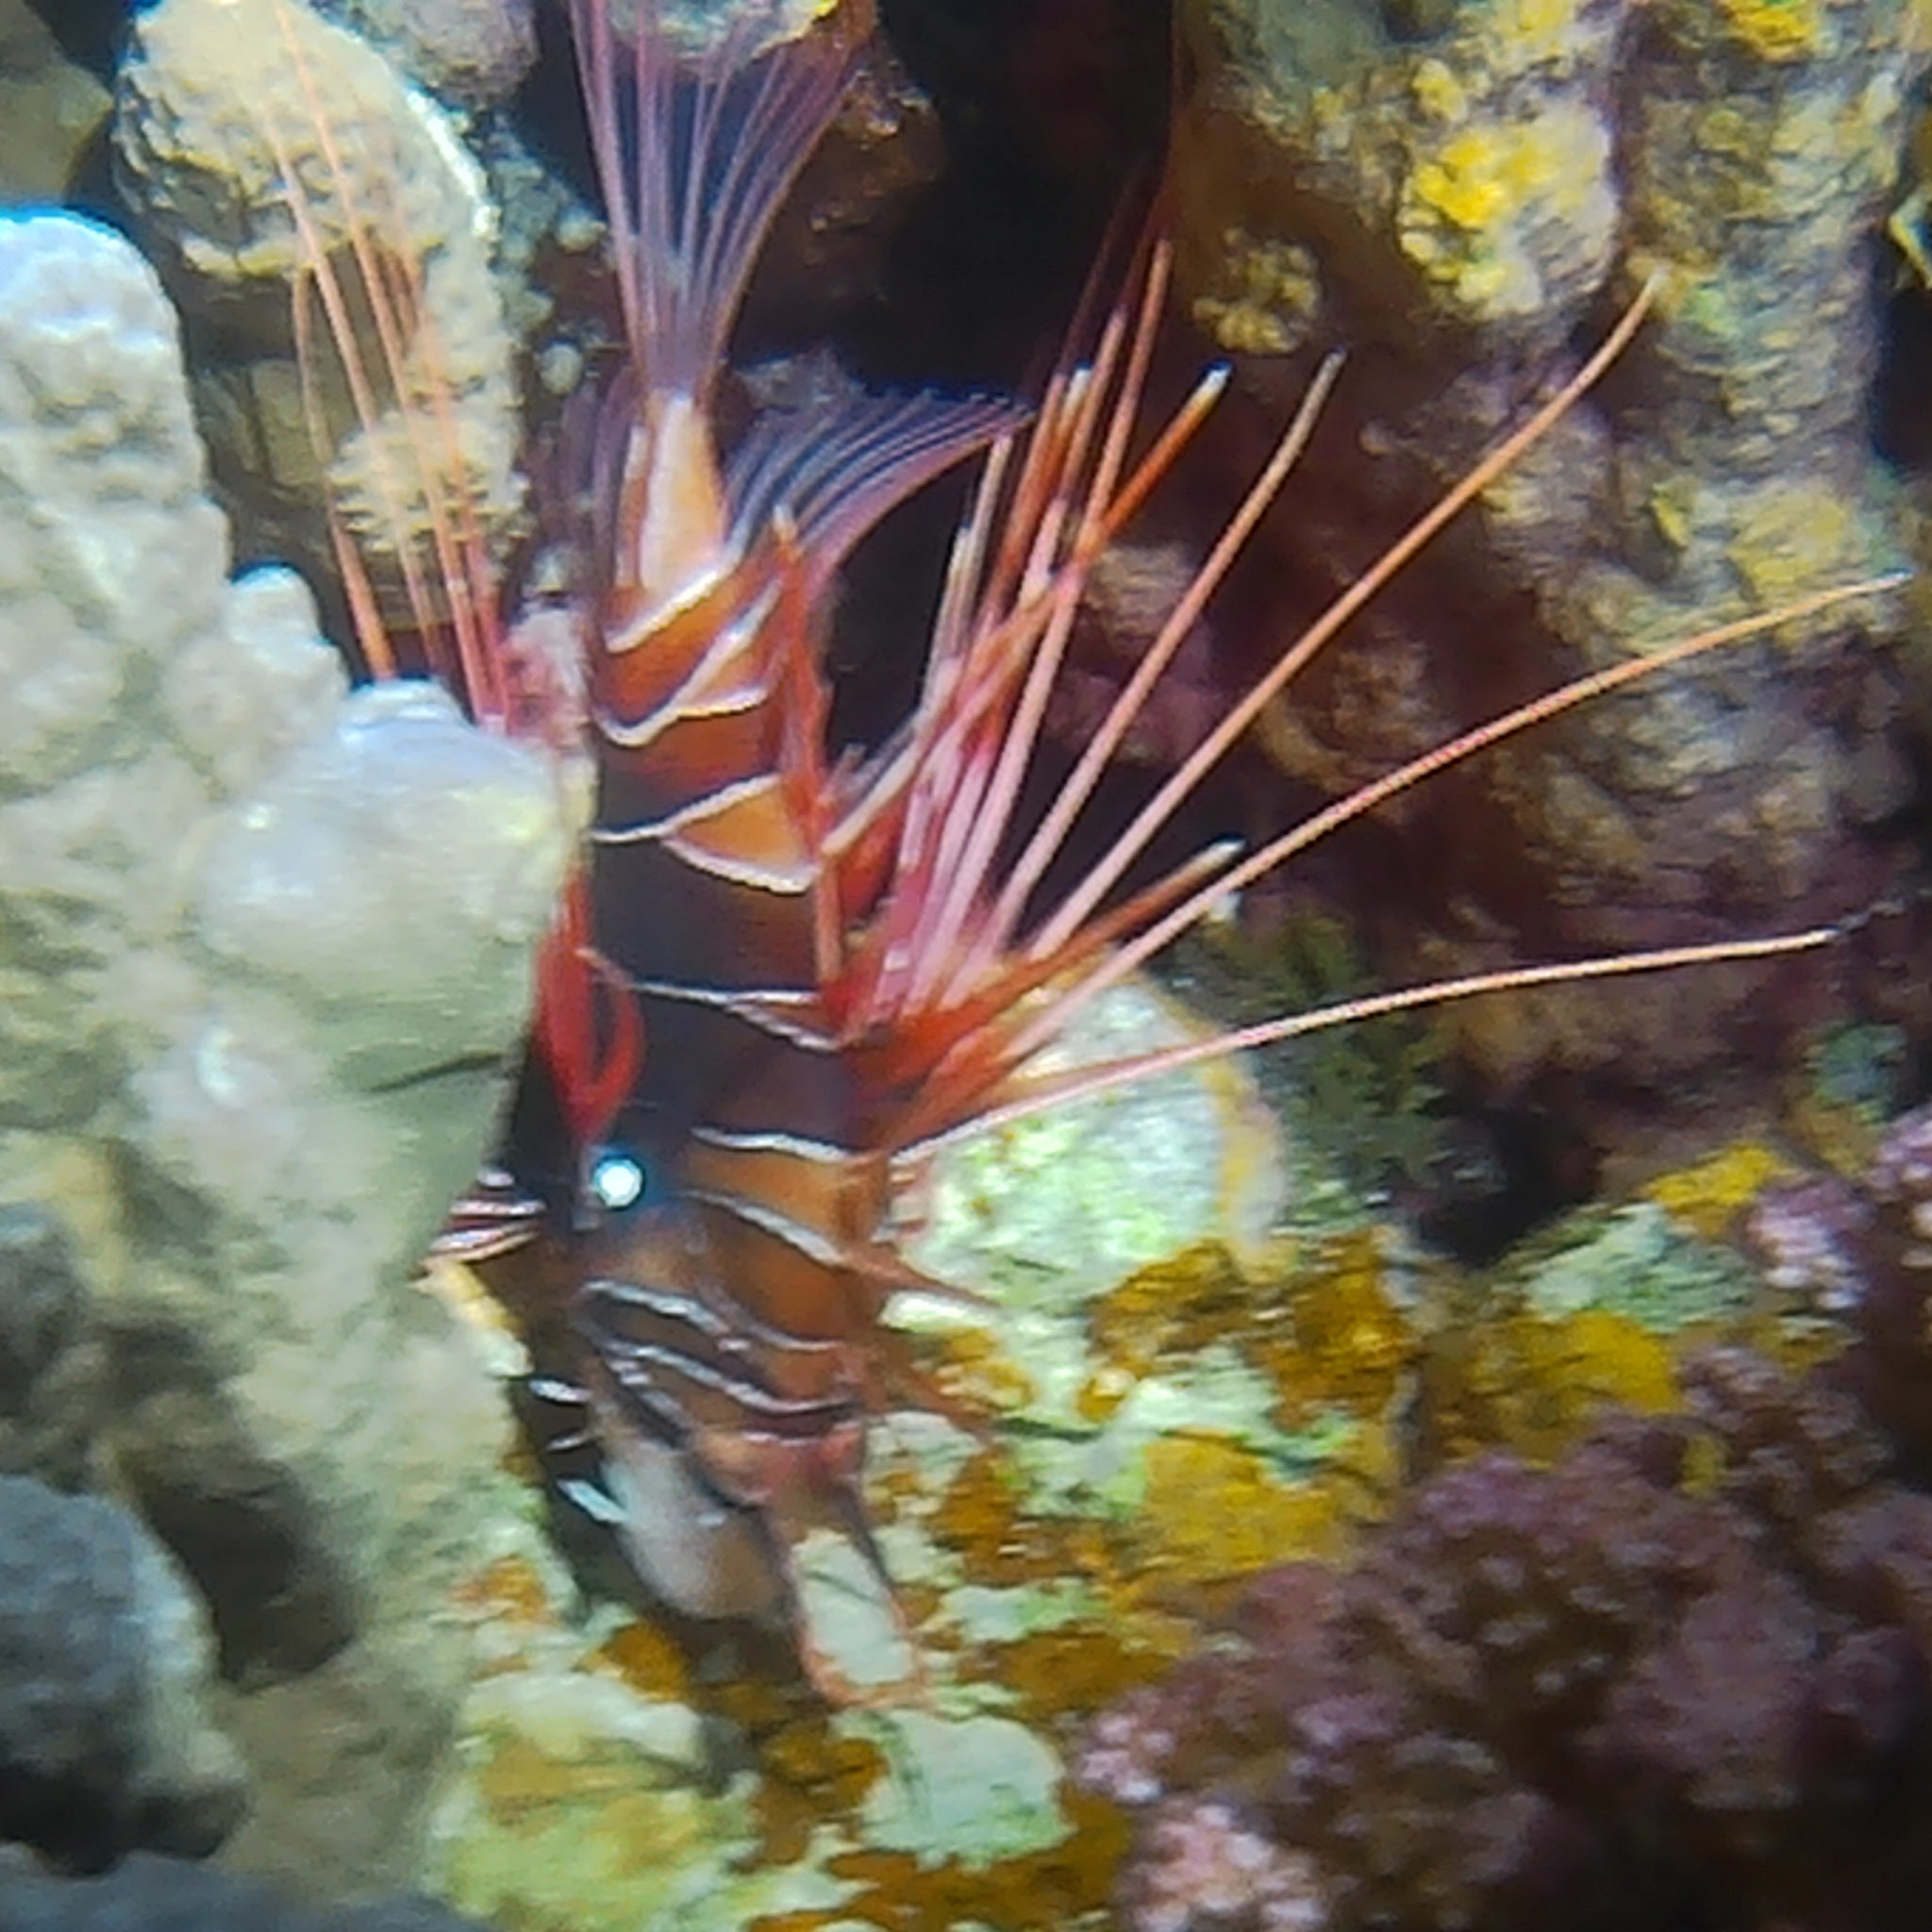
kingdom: Animalia
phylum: Chordata
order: Scorpaeniformes
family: Scorpaenidae
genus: Pterois
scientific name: Pterois cincta
